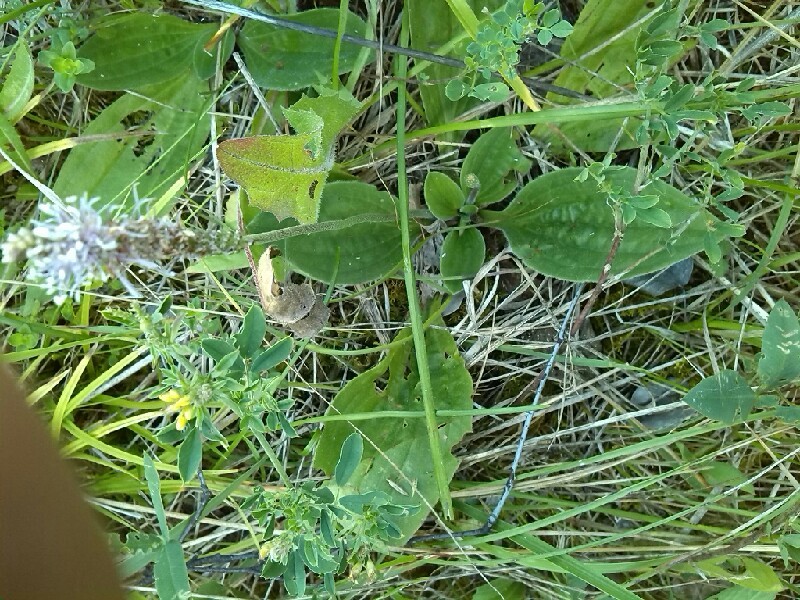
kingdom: Plantae
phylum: Tracheophyta
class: Magnoliopsida
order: Lamiales
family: Plantaginaceae
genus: Plantago
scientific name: Plantago media
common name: Hoary plantain
